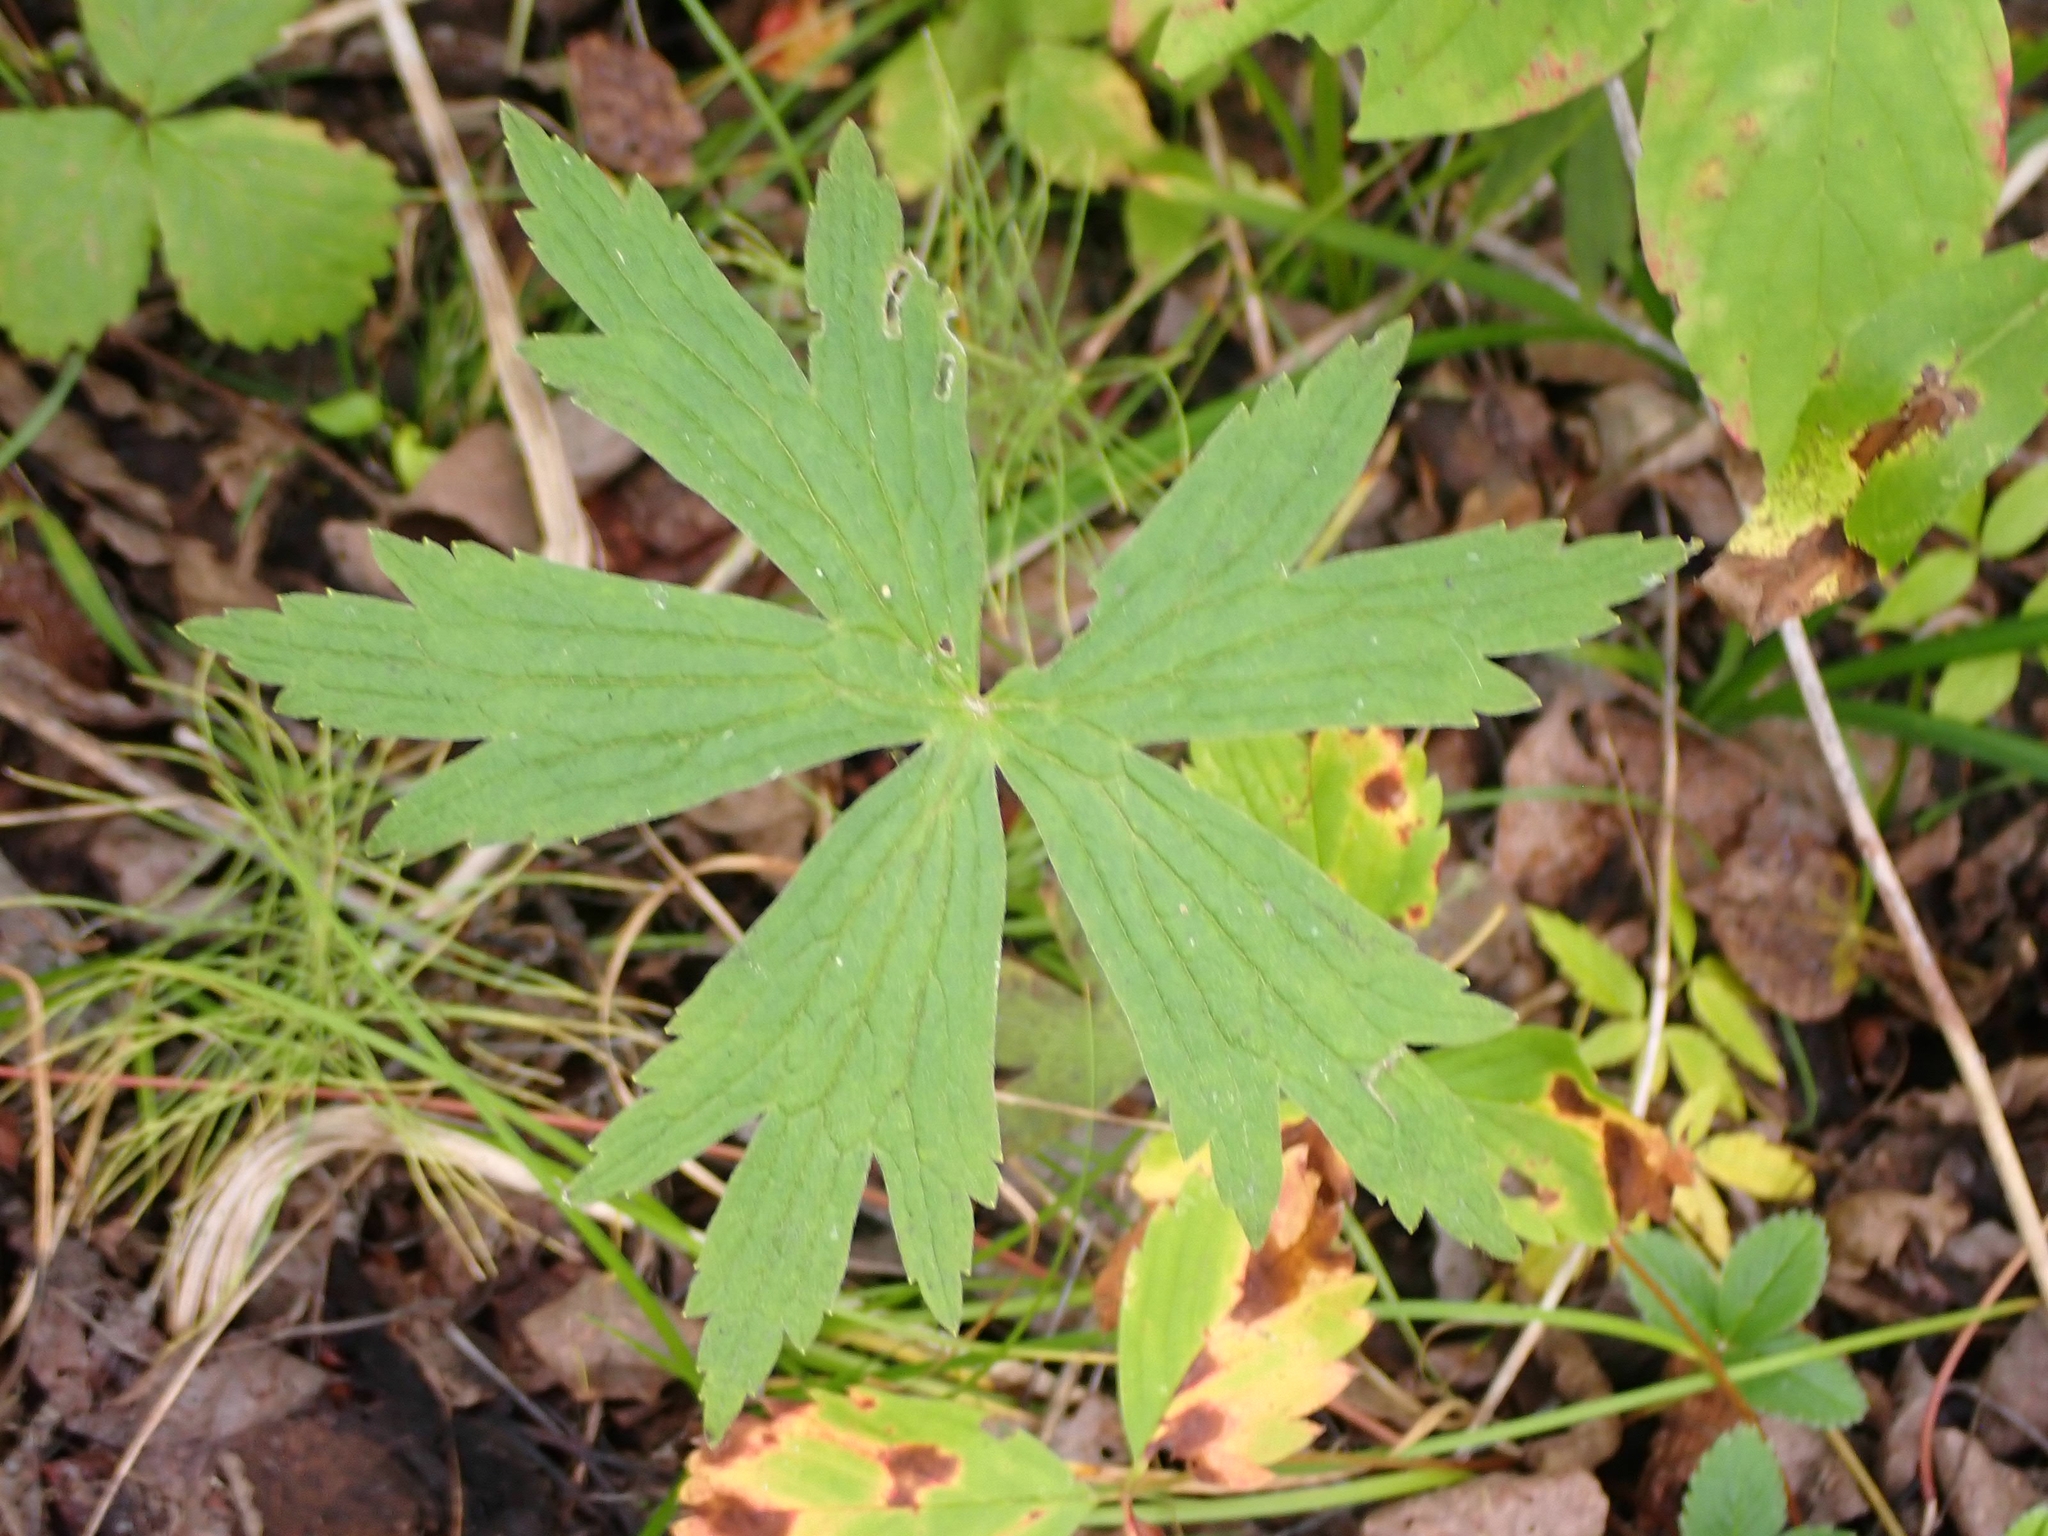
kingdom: Plantae
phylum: Tracheophyta
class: Magnoliopsida
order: Ranunculales
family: Ranunculaceae
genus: Anemonastrum
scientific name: Anemonastrum canadense
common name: Canada anemone
